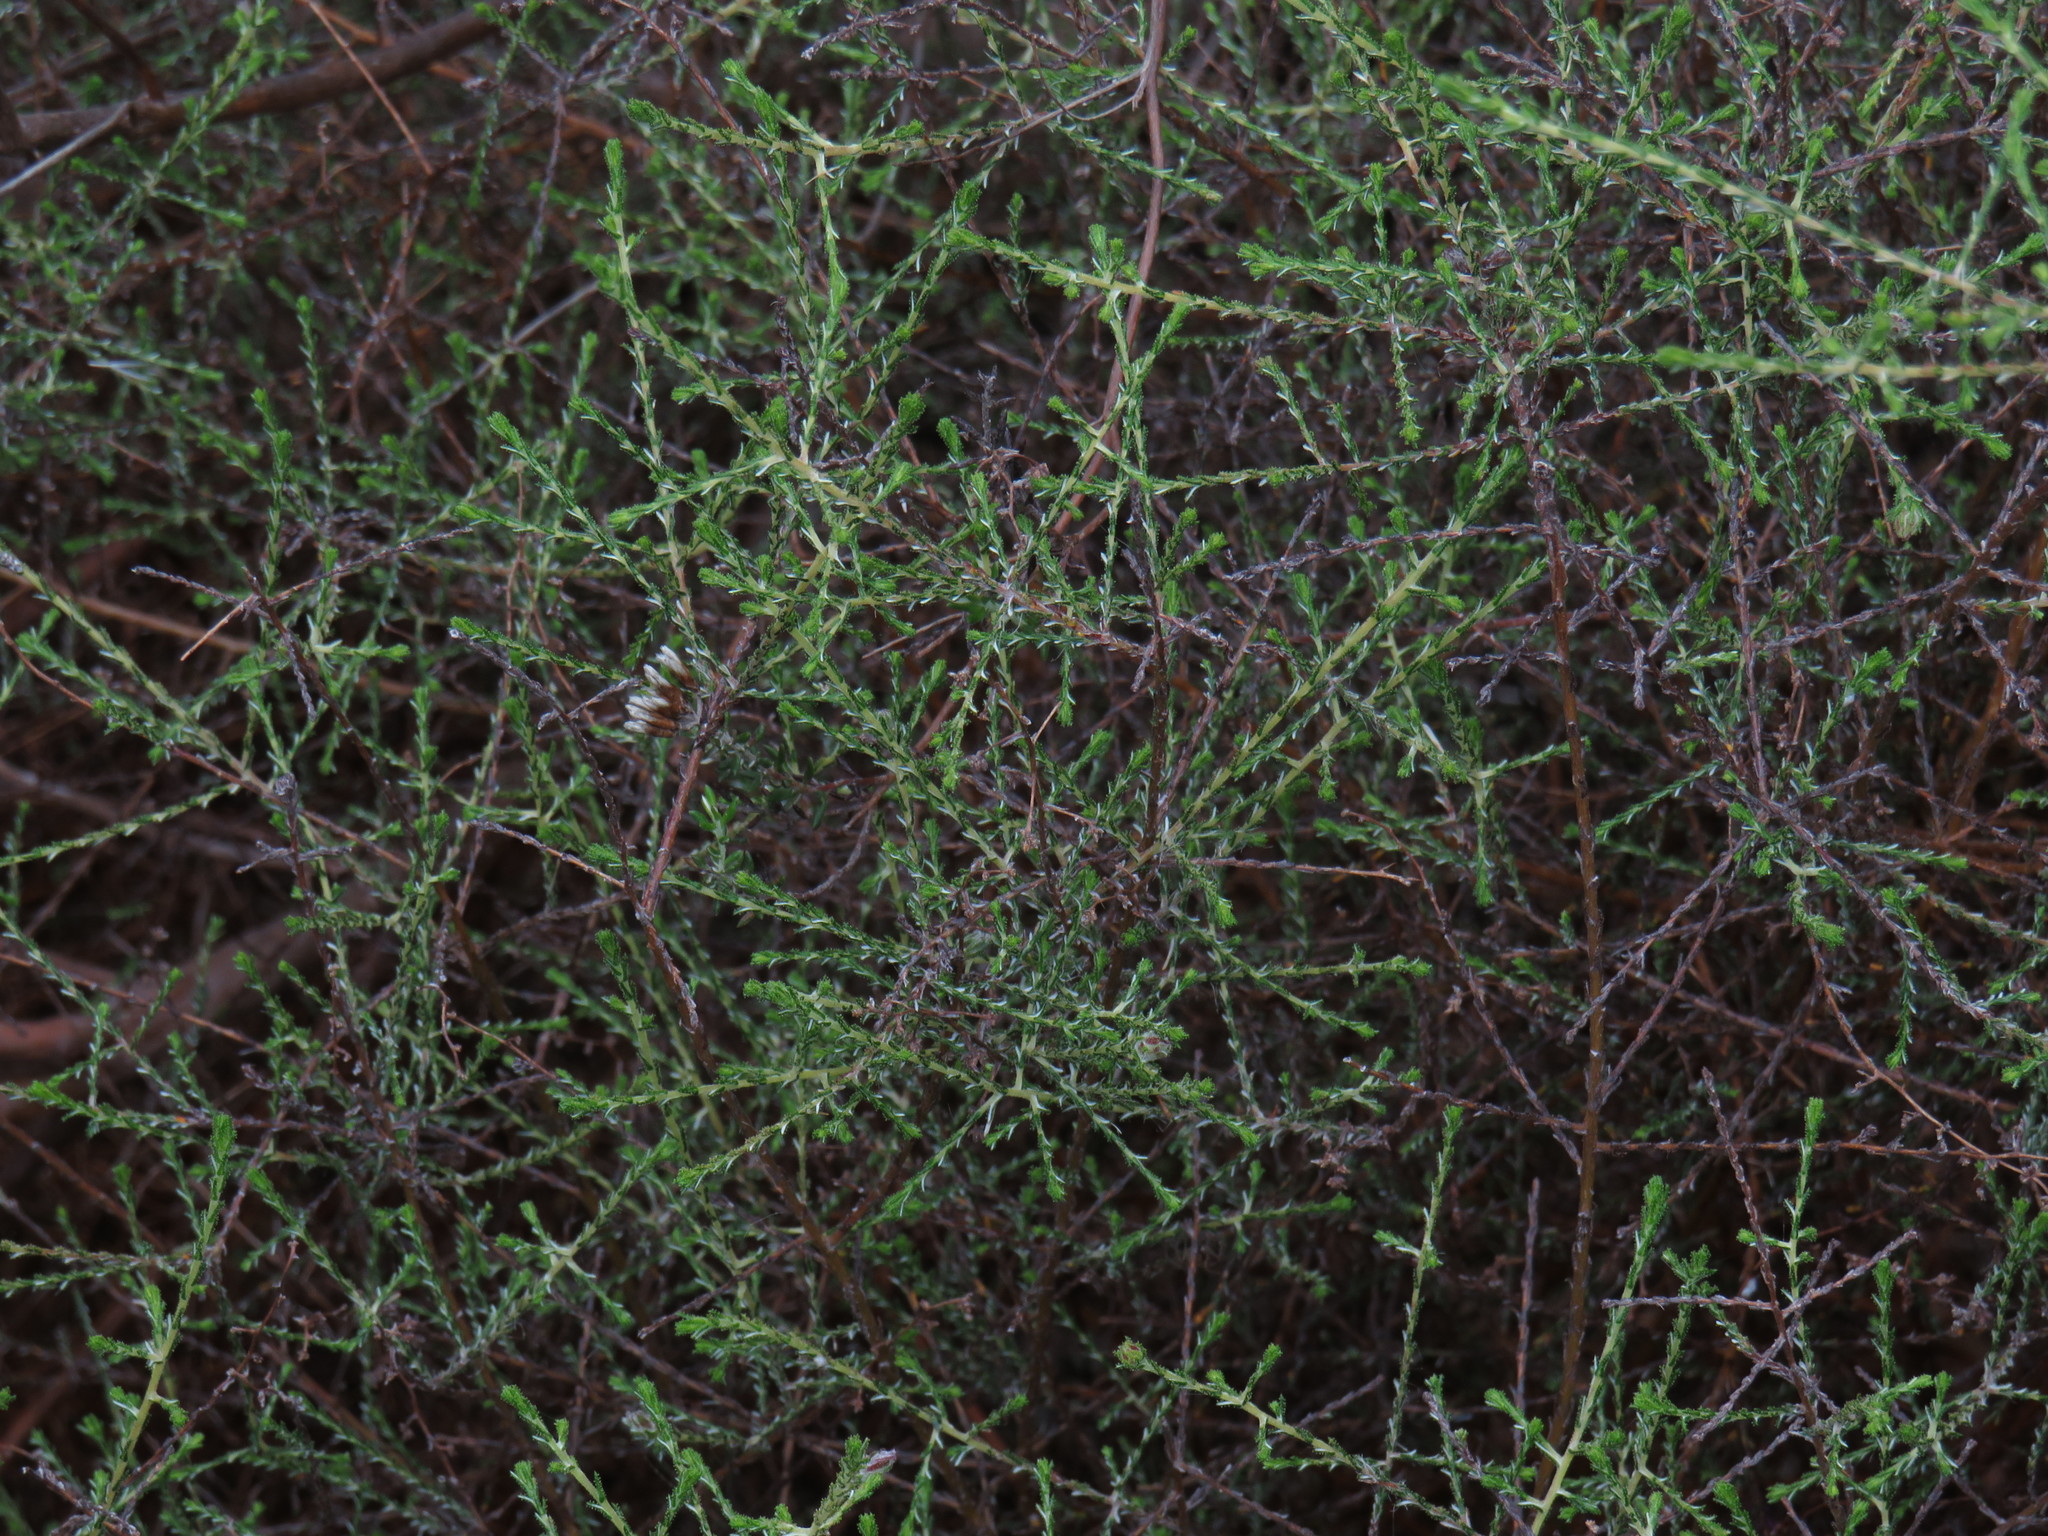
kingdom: Plantae
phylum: Tracheophyta
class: Magnoliopsida
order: Asterales
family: Asteraceae
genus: Myrovernix
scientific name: Myrovernix scaber
